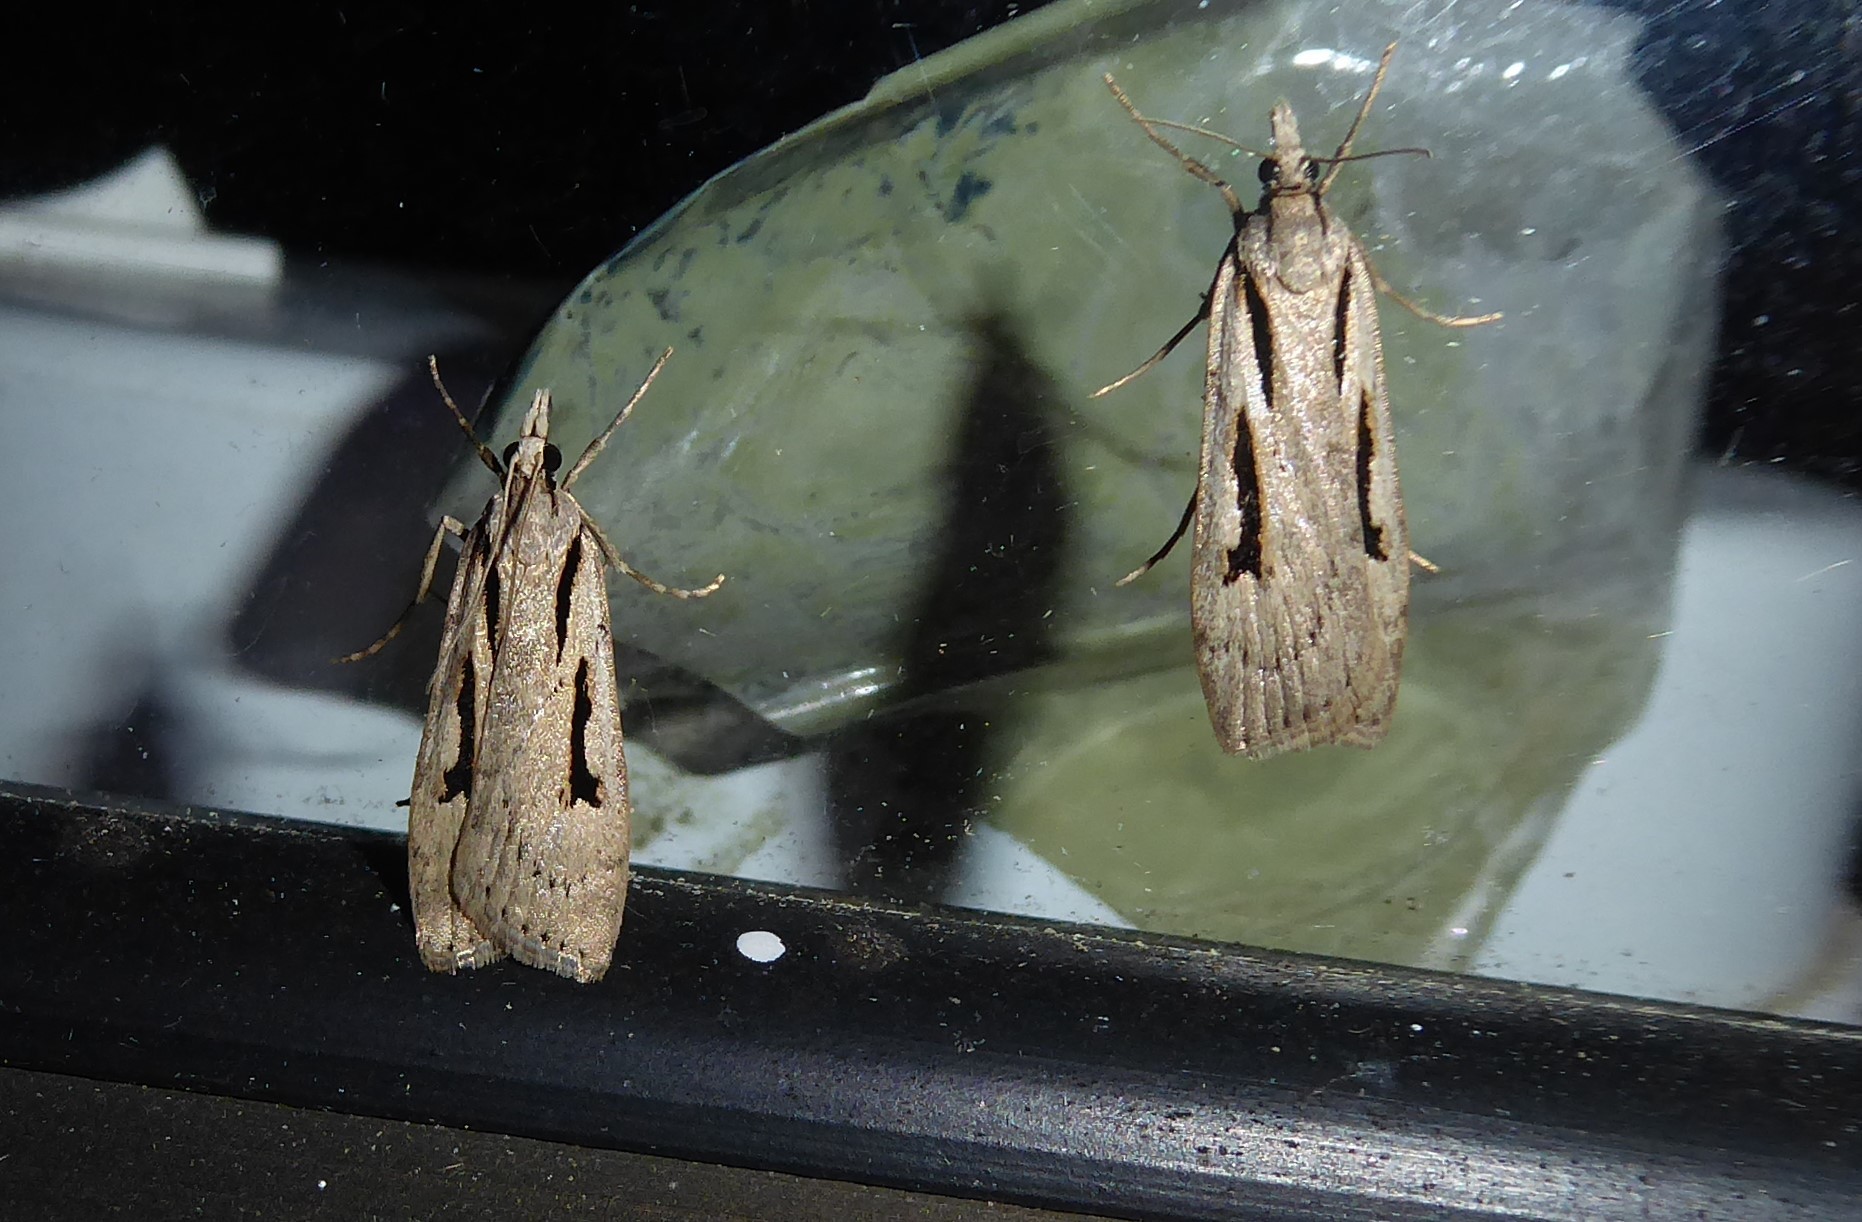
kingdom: Animalia
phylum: Arthropoda
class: Insecta
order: Lepidoptera
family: Crambidae
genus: Scoparia
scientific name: Scoparia rotuellus
